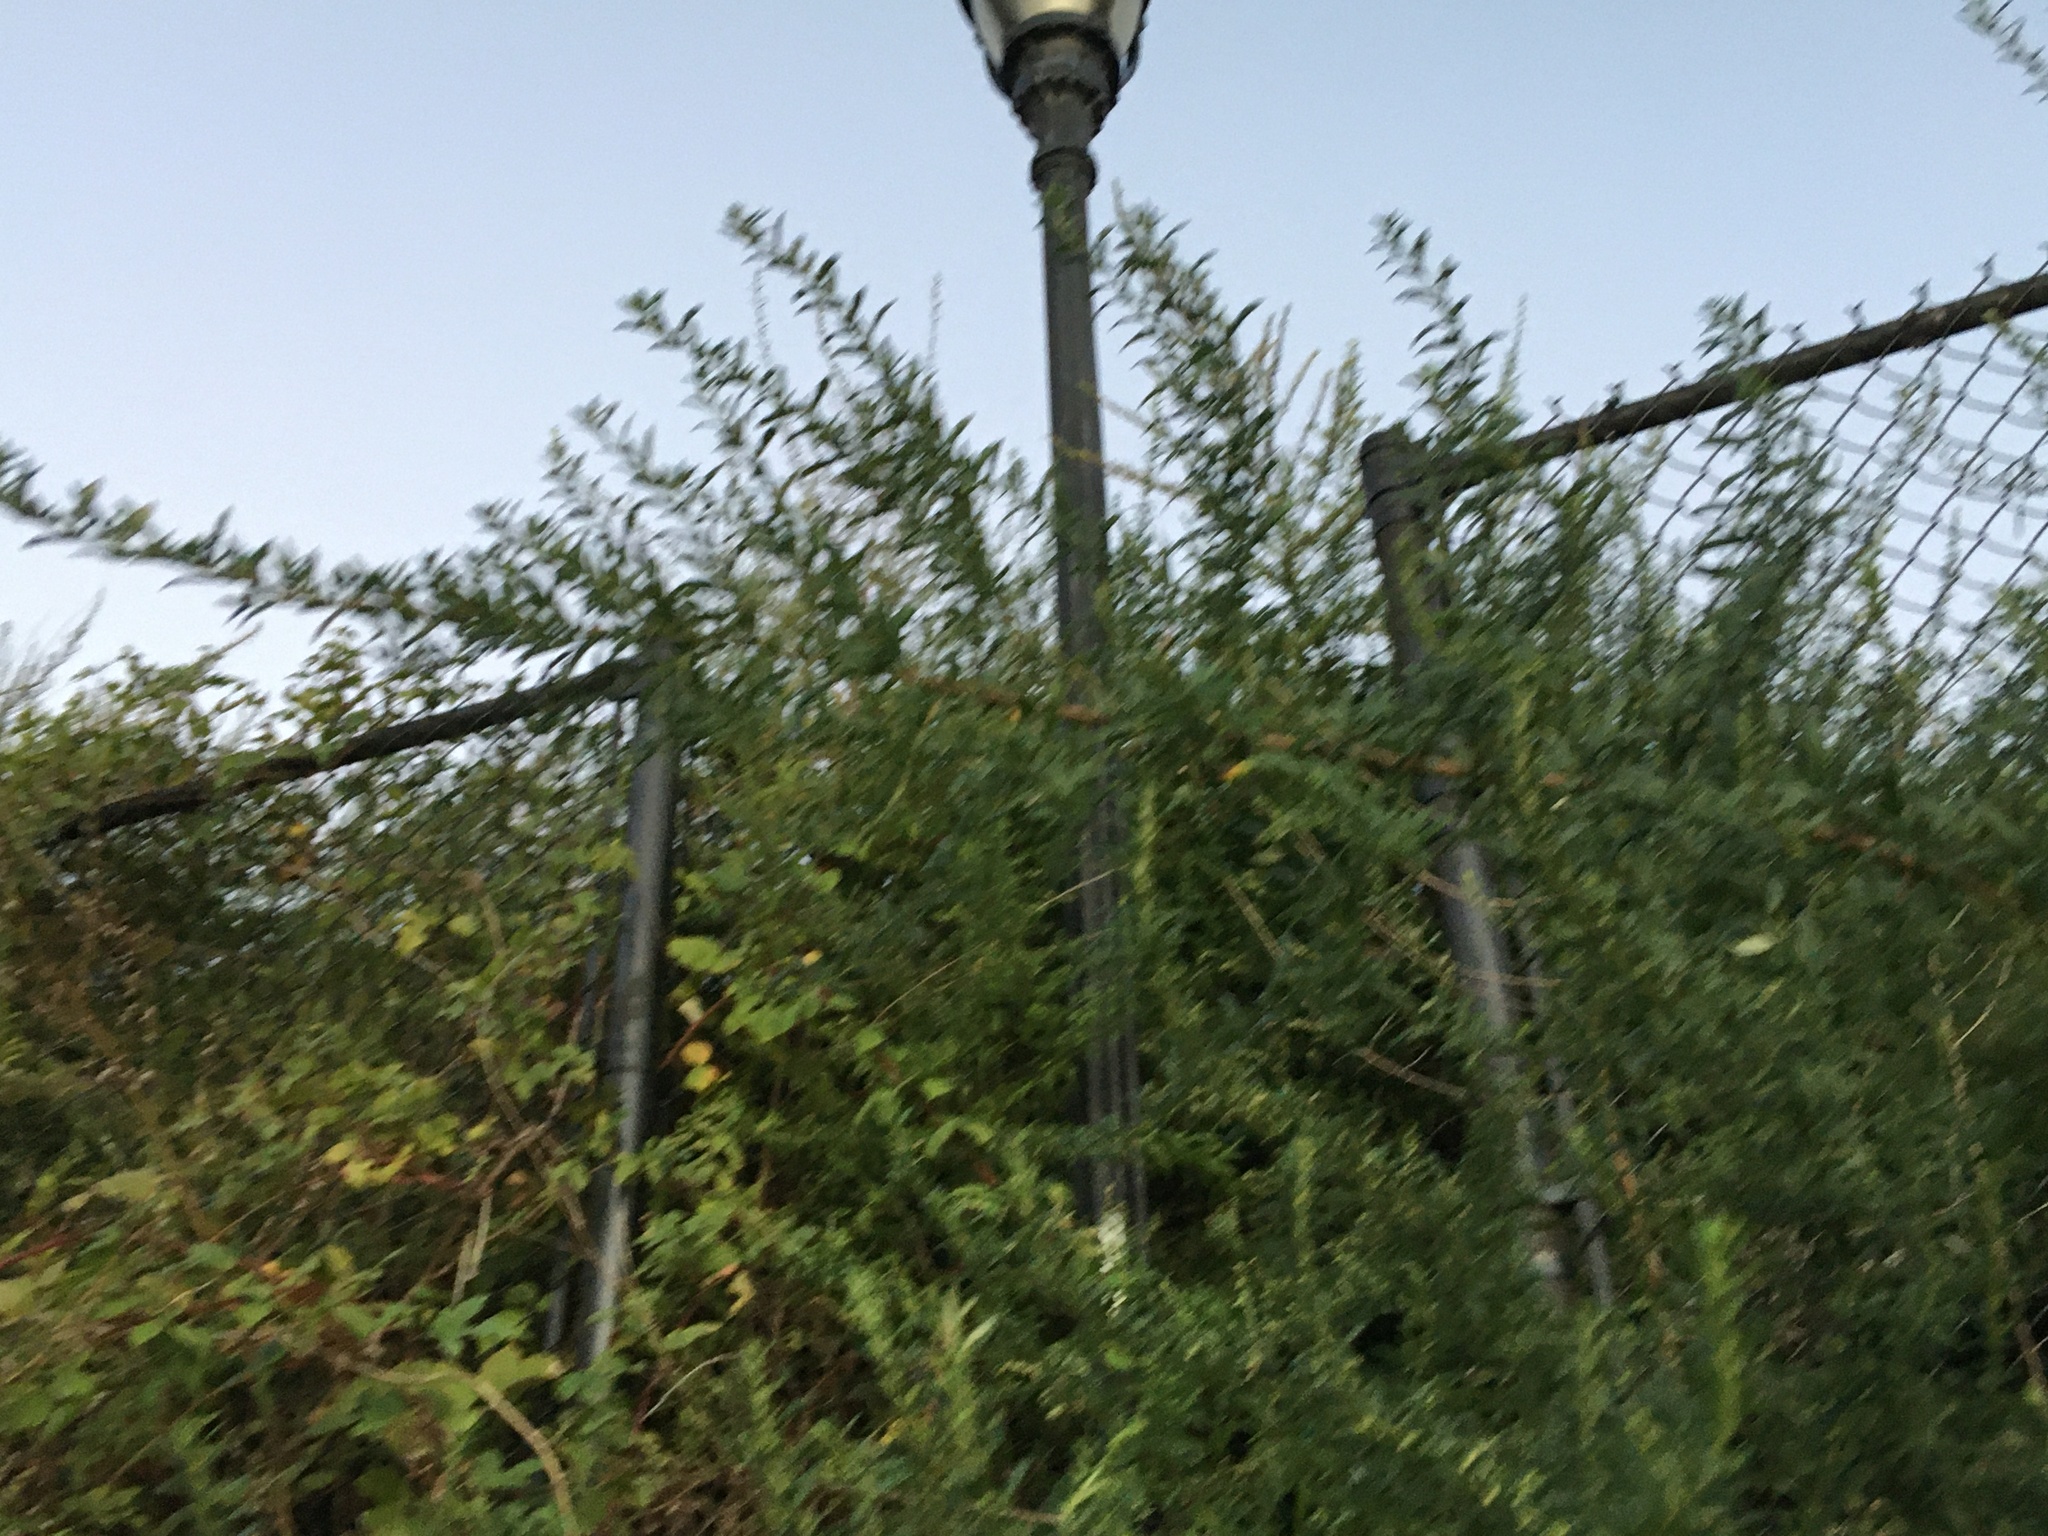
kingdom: Plantae
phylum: Tracheophyta
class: Magnoliopsida
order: Asterales
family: Asteraceae
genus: Artemisia
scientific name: Artemisia vulgaris
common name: Mugwort
